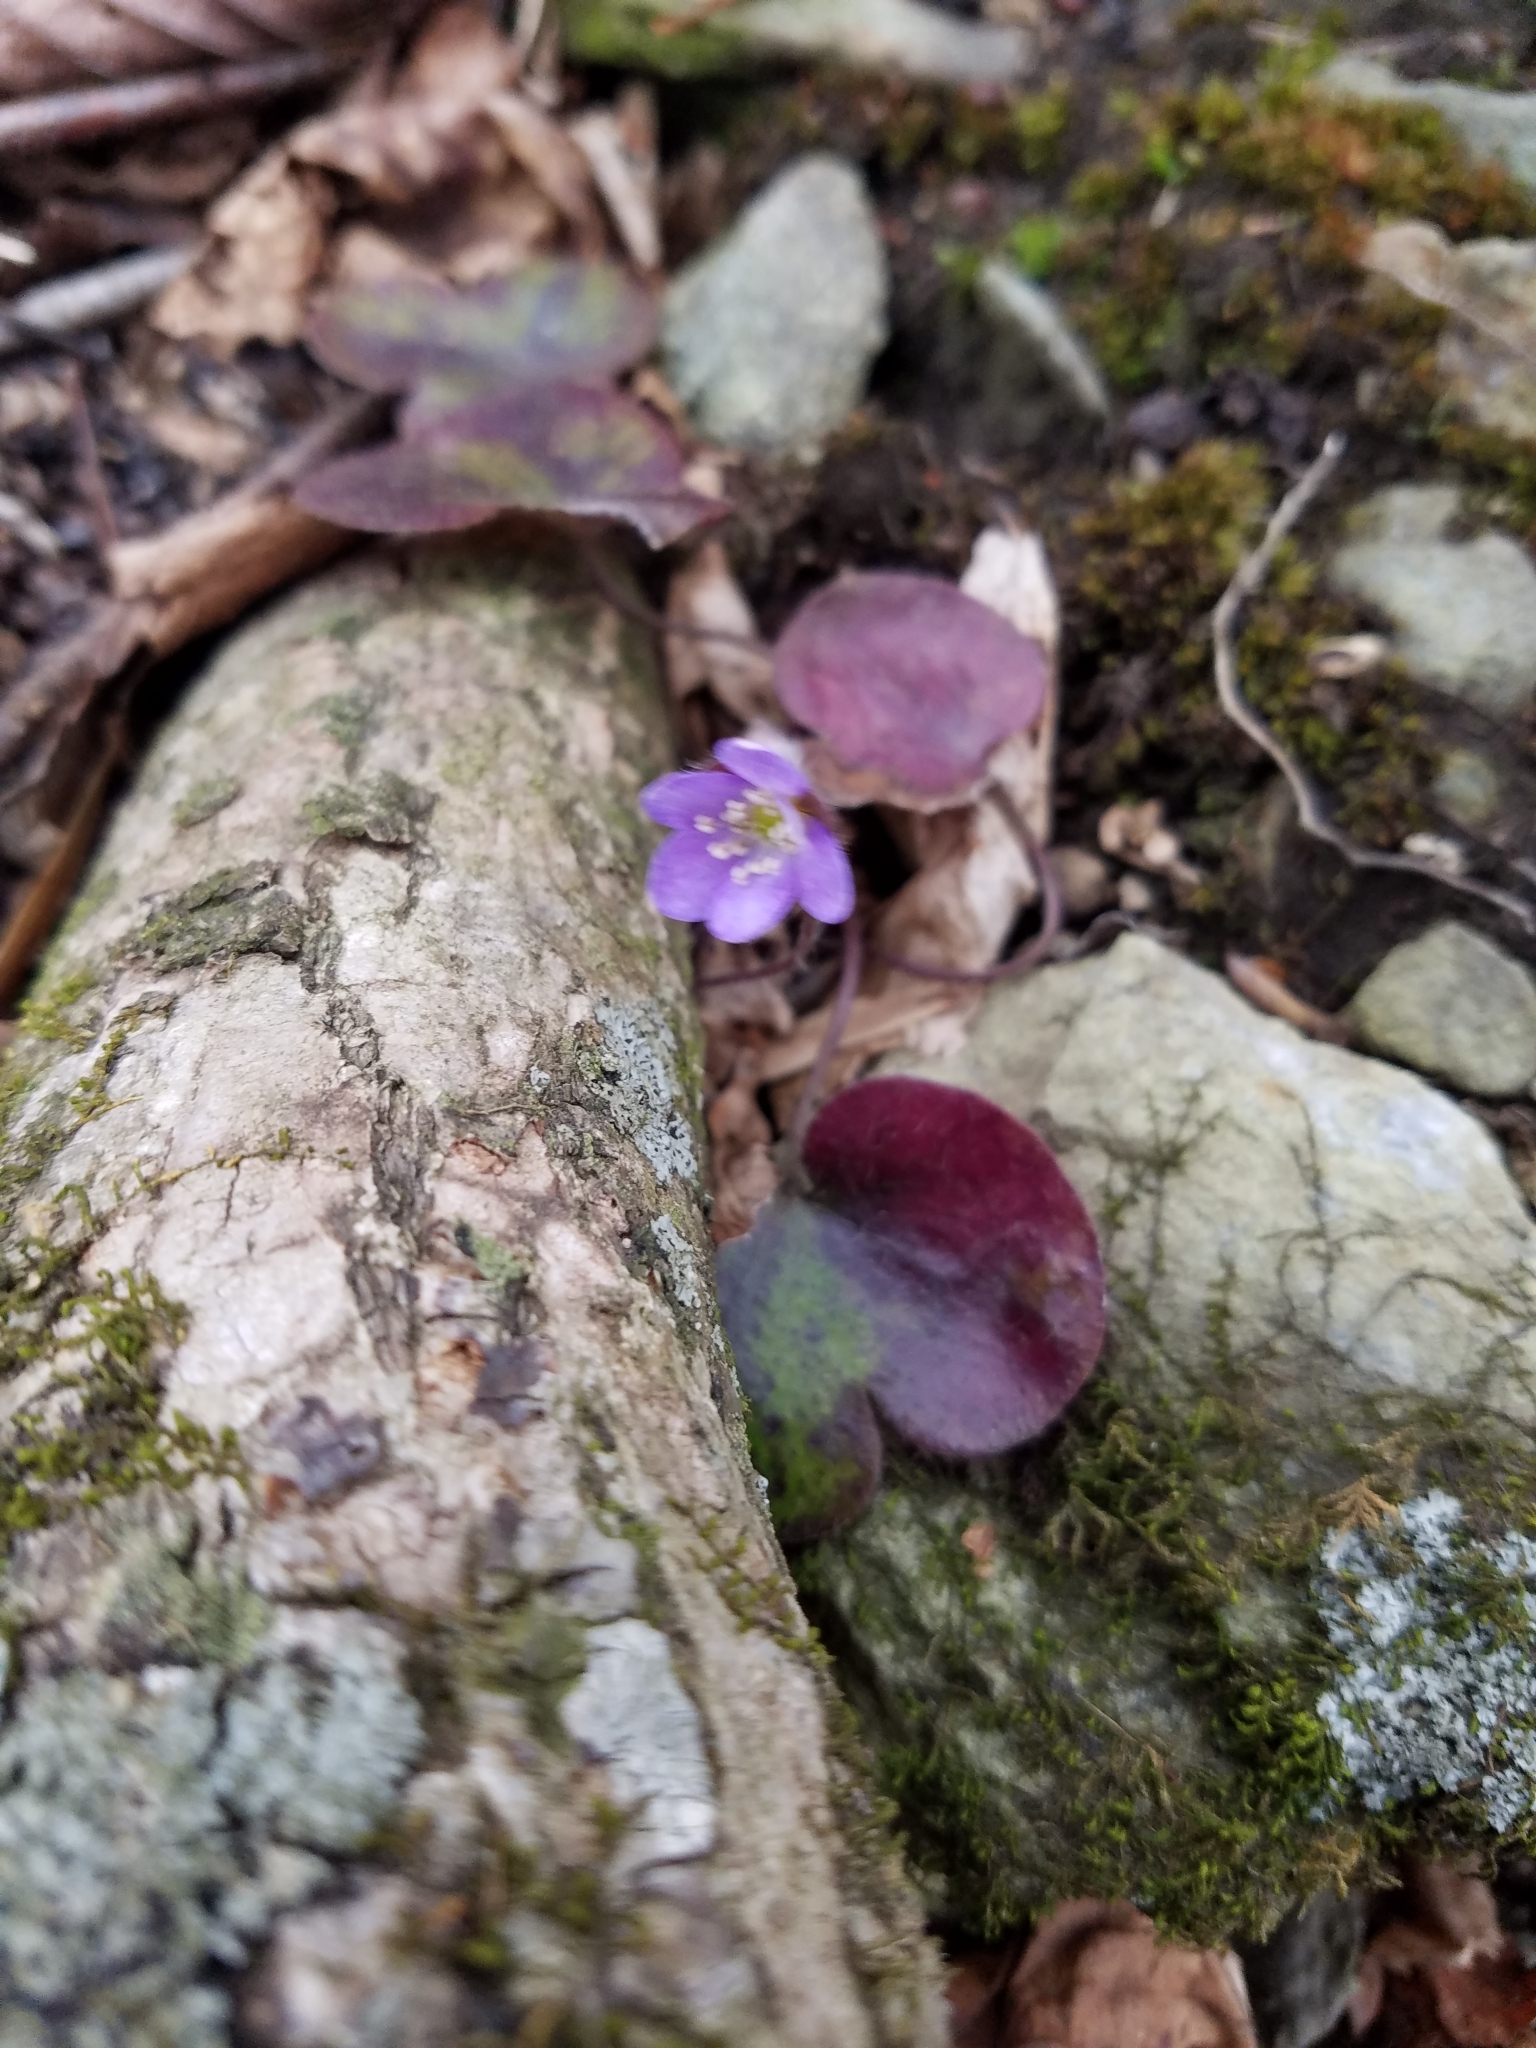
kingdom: Plantae
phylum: Tracheophyta
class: Magnoliopsida
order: Ranunculales
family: Ranunculaceae
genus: Hepatica
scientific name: Hepatica americana
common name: American hepatica
